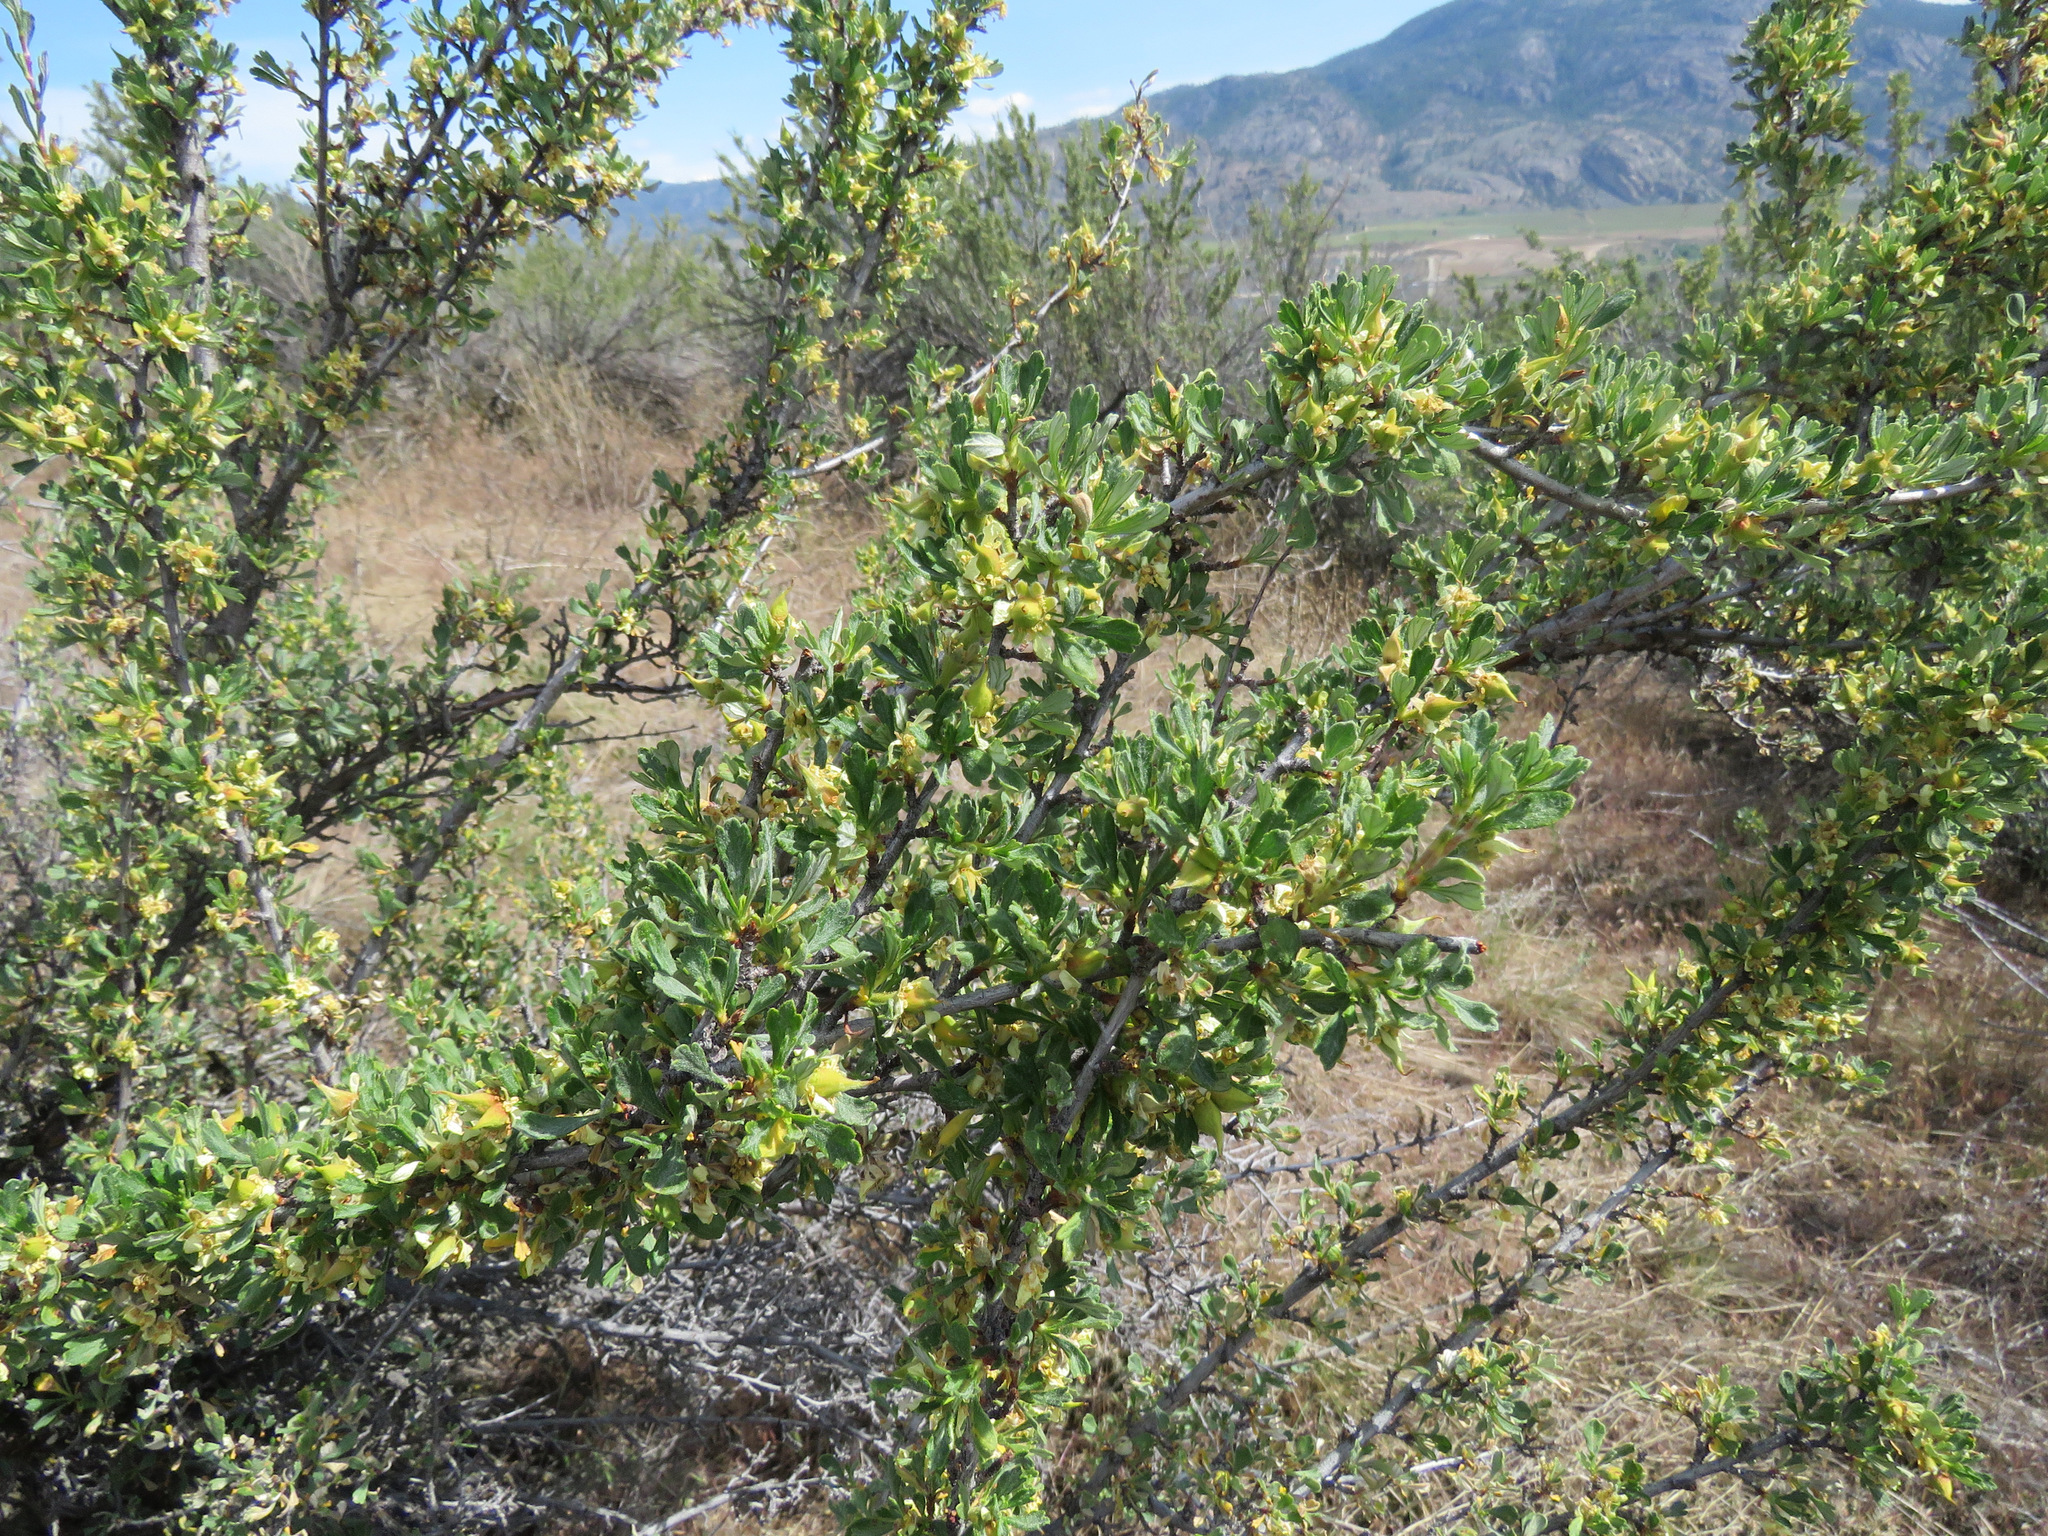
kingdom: Plantae
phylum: Tracheophyta
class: Magnoliopsida
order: Rosales
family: Rosaceae
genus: Purshia
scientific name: Purshia tridentata
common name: Antelope bitterbrush
